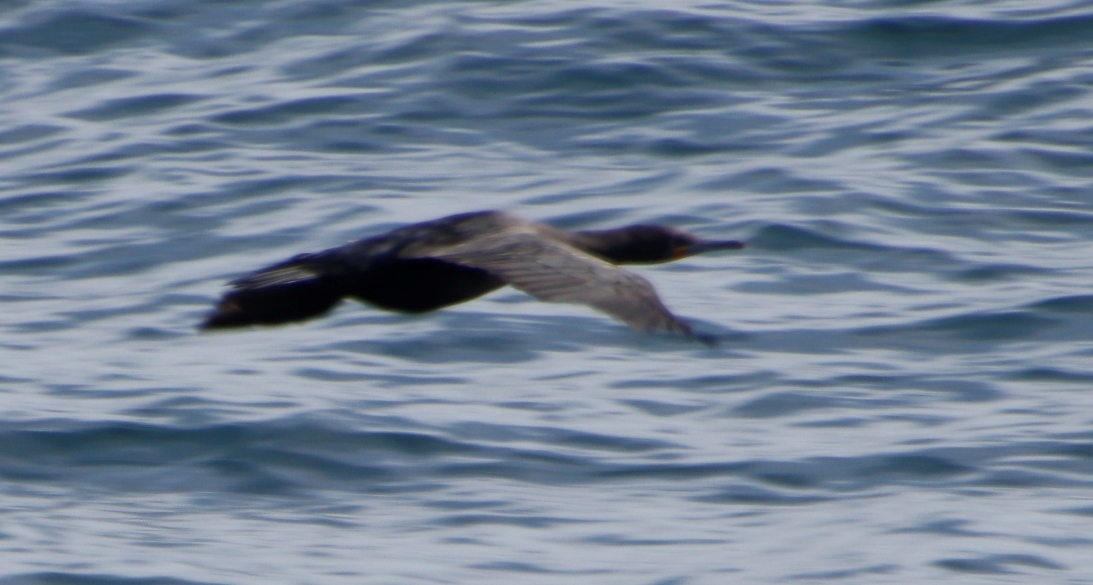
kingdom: Animalia
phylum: Chordata
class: Aves
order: Suliformes
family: Phalacrocoracidae
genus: Phalacrocorax
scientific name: Phalacrocorax capensis
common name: Cape cormorant
